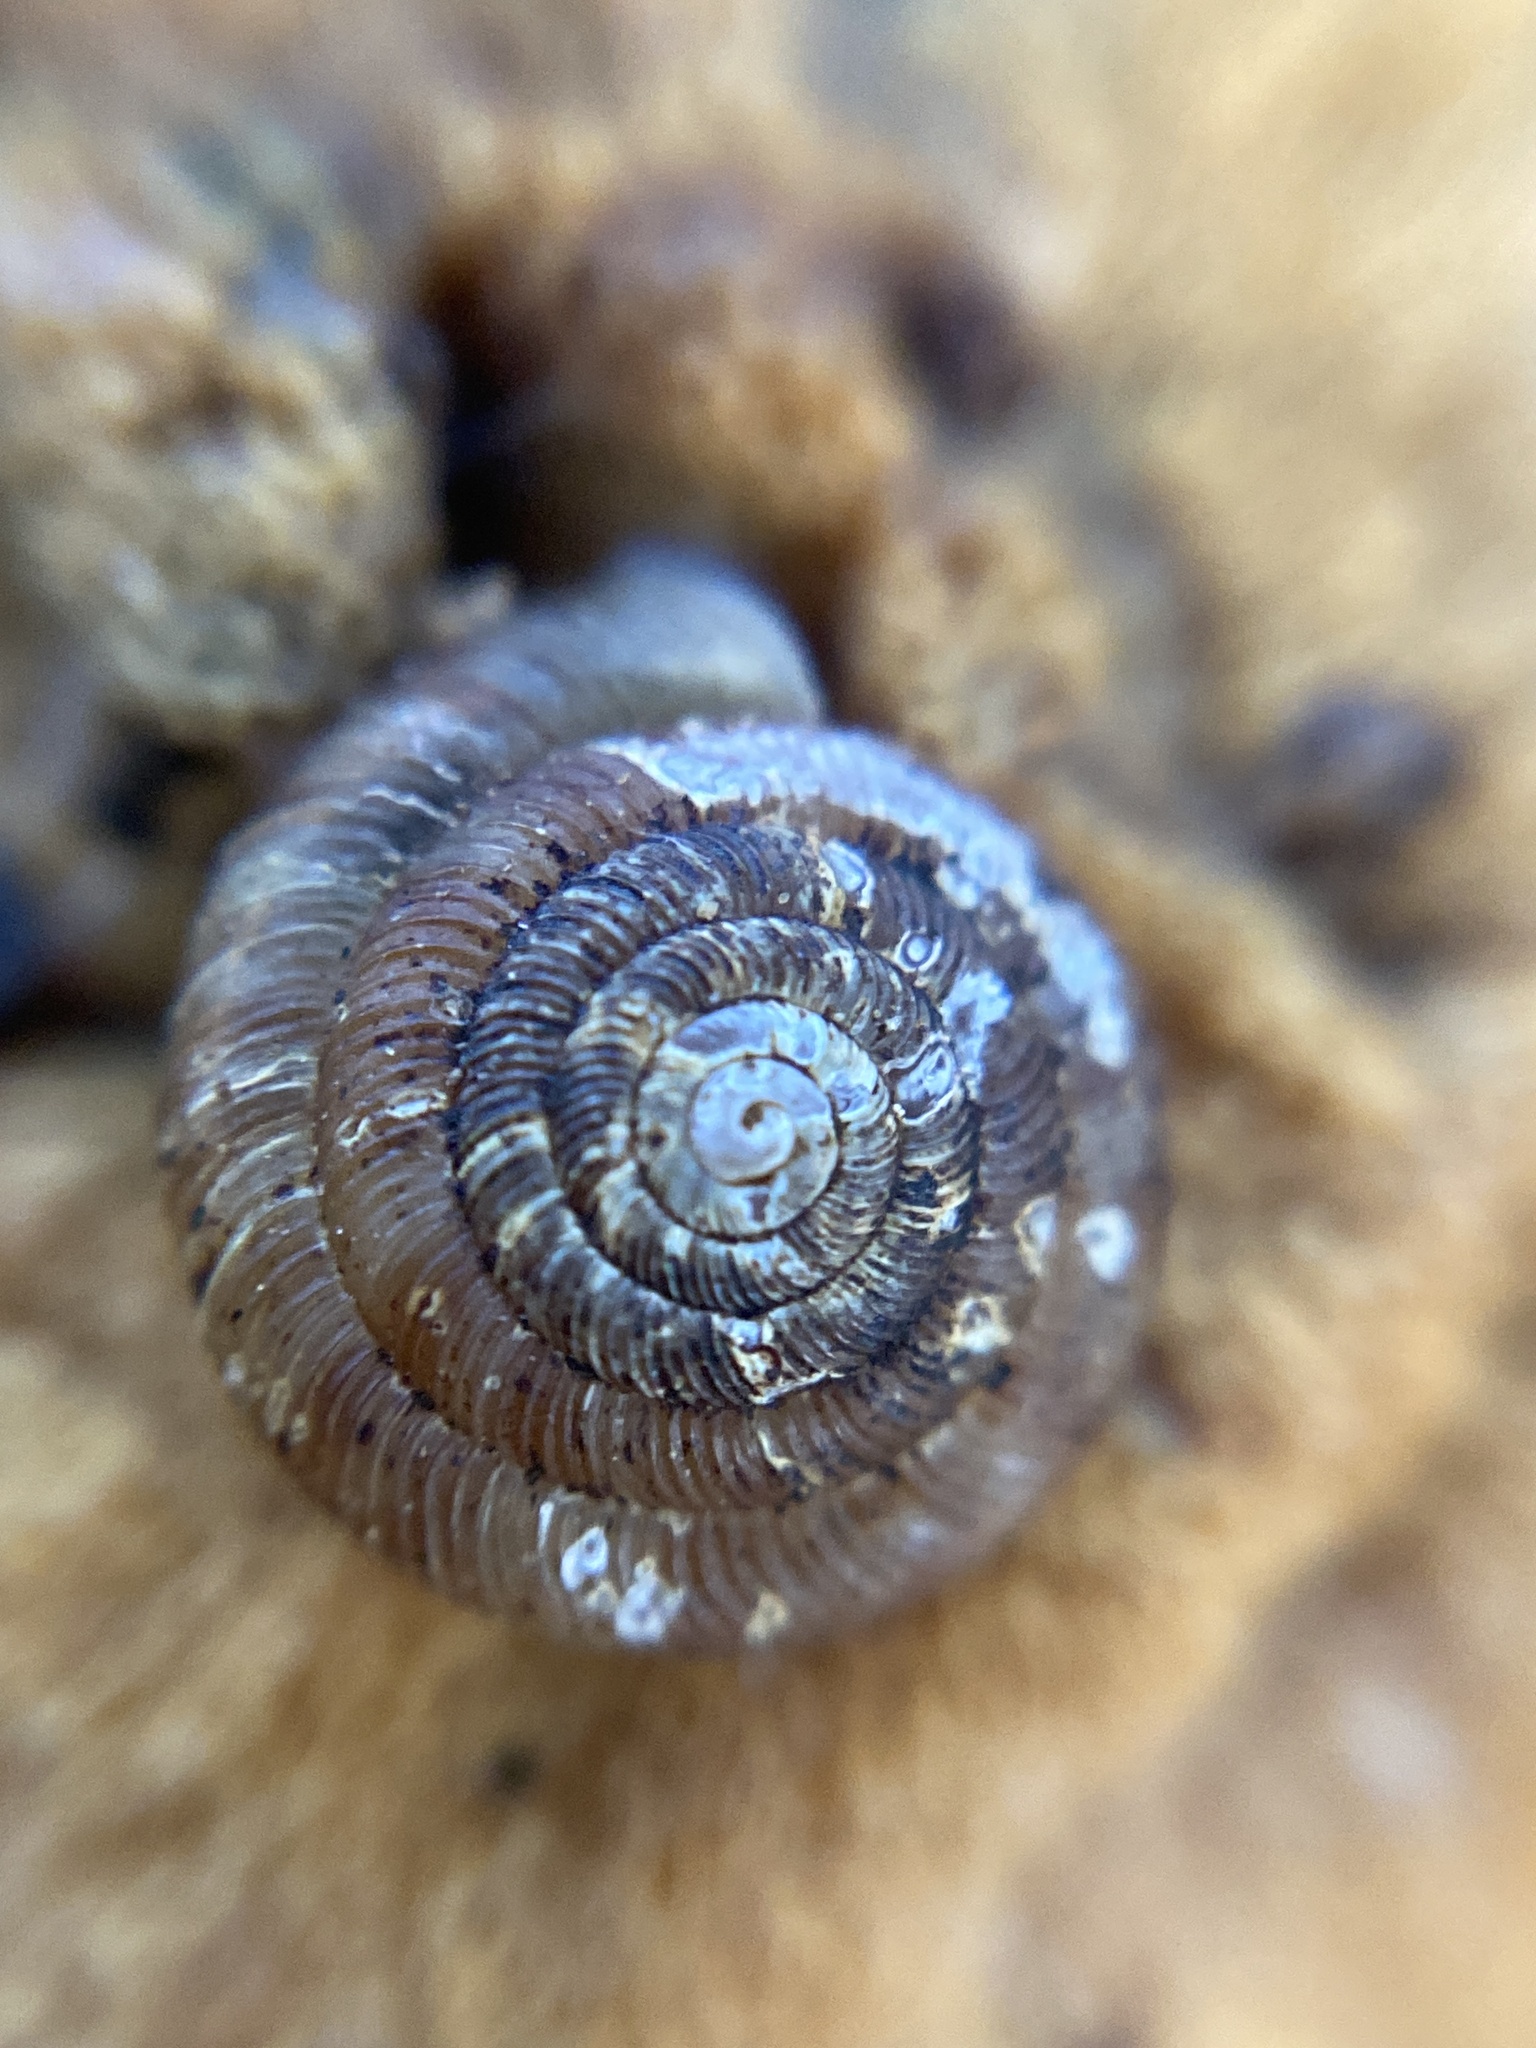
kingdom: Animalia
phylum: Mollusca
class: Gastropoda
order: Stylommatophora
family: Discidae
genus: Discus
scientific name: Discus rotundatus
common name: Rounded snail
